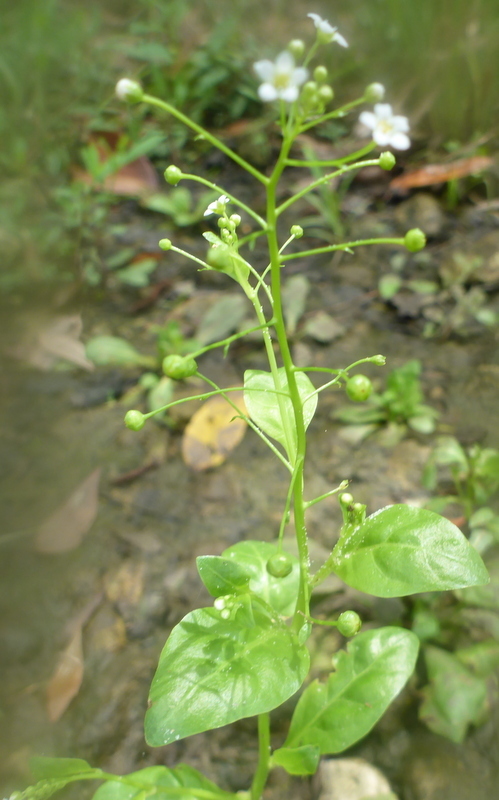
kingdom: Plantae
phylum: Tracheophyta
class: Magnoliopsida
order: Ericales
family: Primulaceae
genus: Samolus
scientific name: Samolus parviflorus
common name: False water pimpernel
